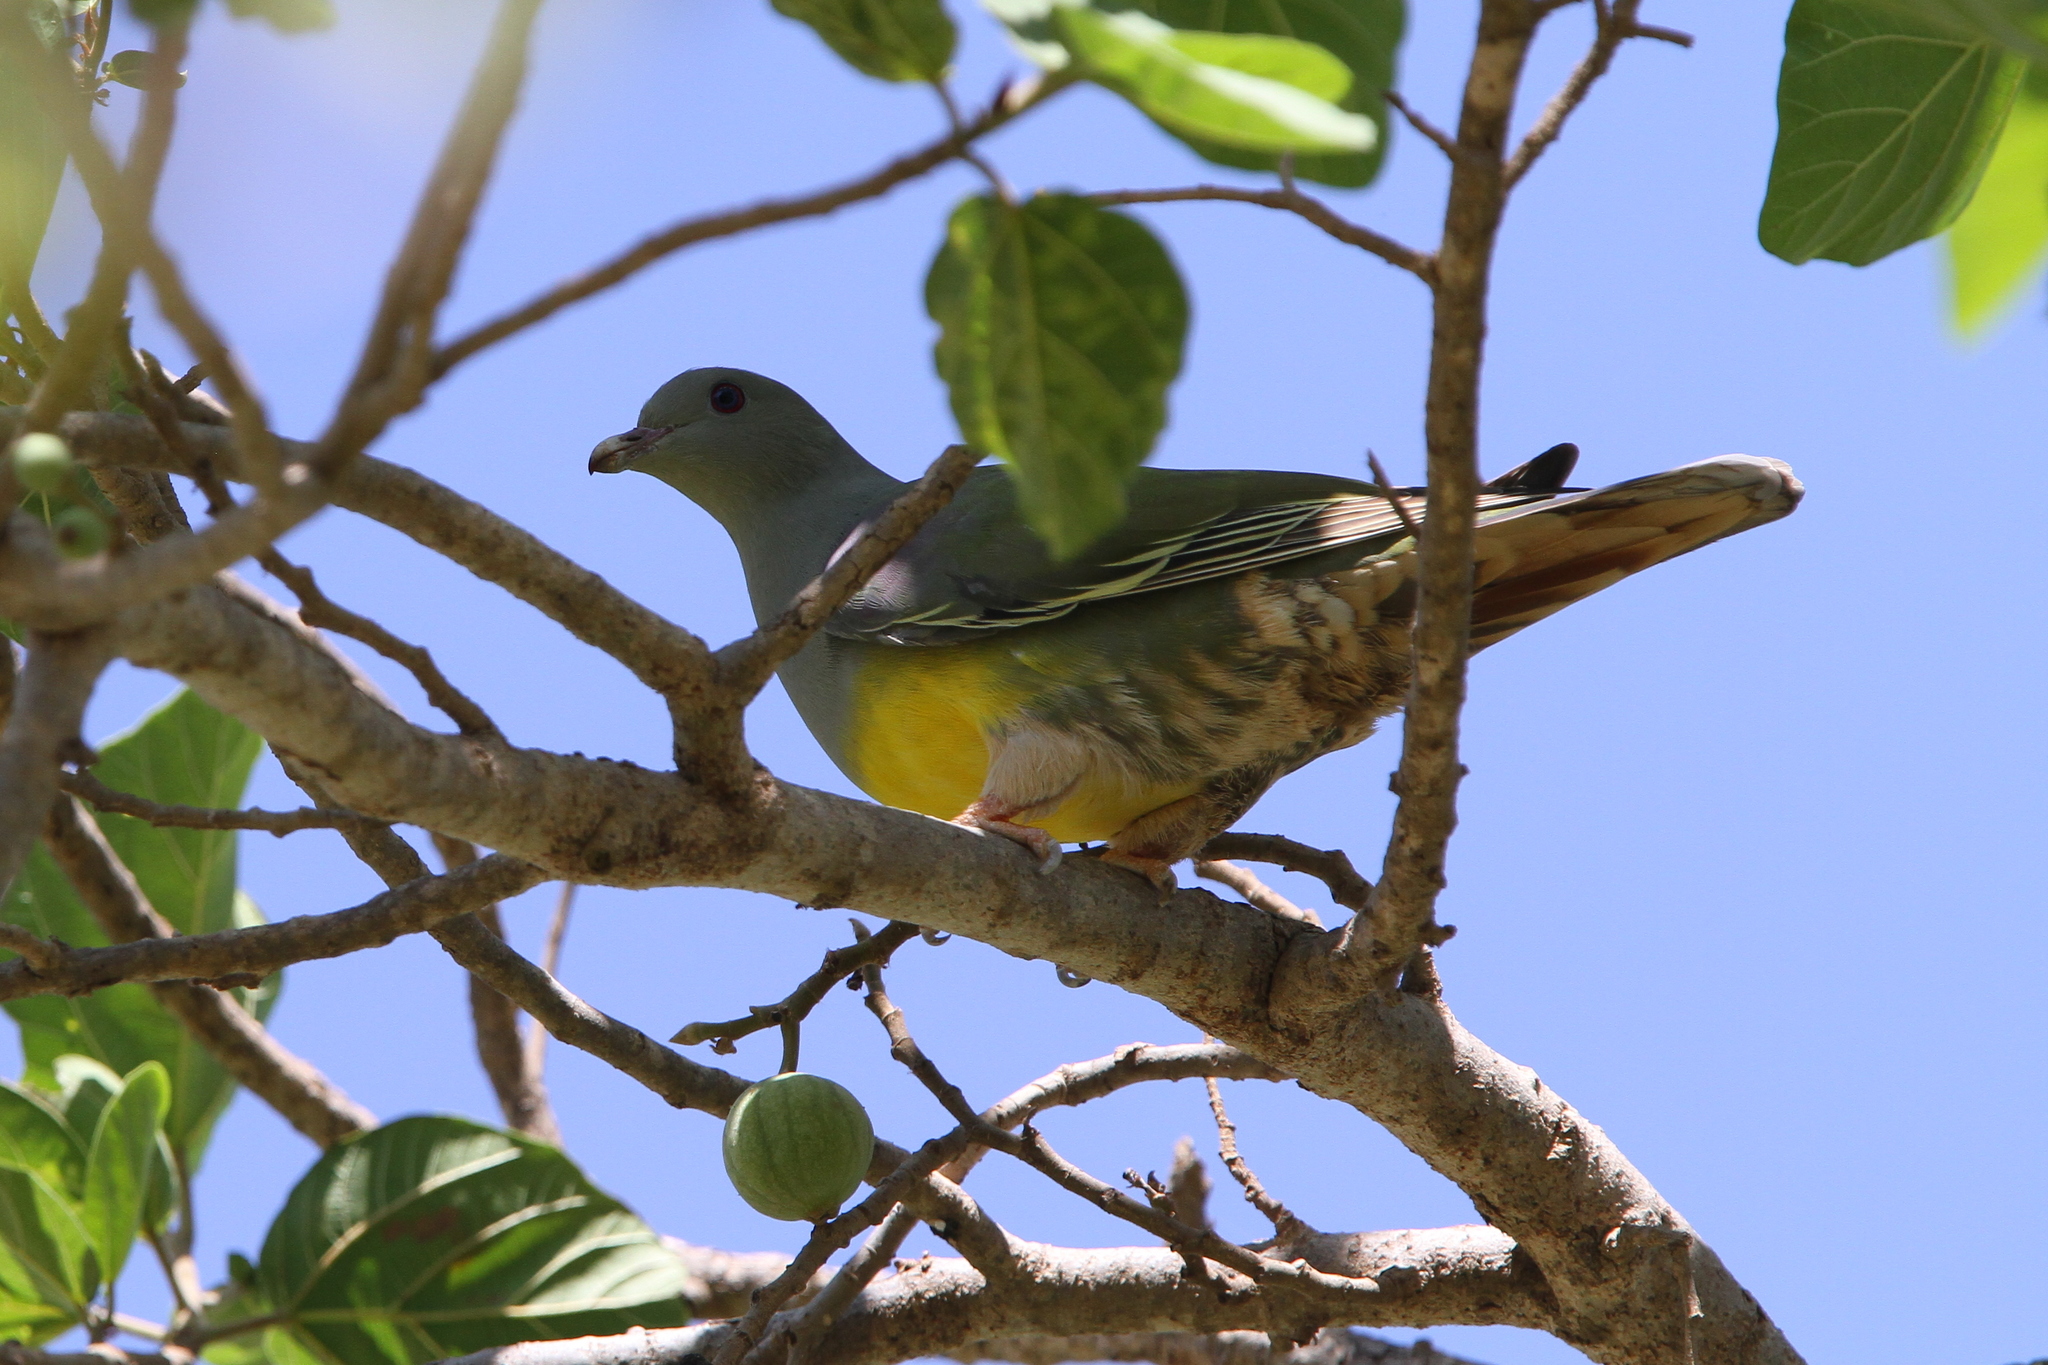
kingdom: Animalia
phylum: Chordata
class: Aves
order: Columbiformes
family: Columbidae
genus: Treron
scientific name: Treron waalia
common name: Bruce's green pigeon
